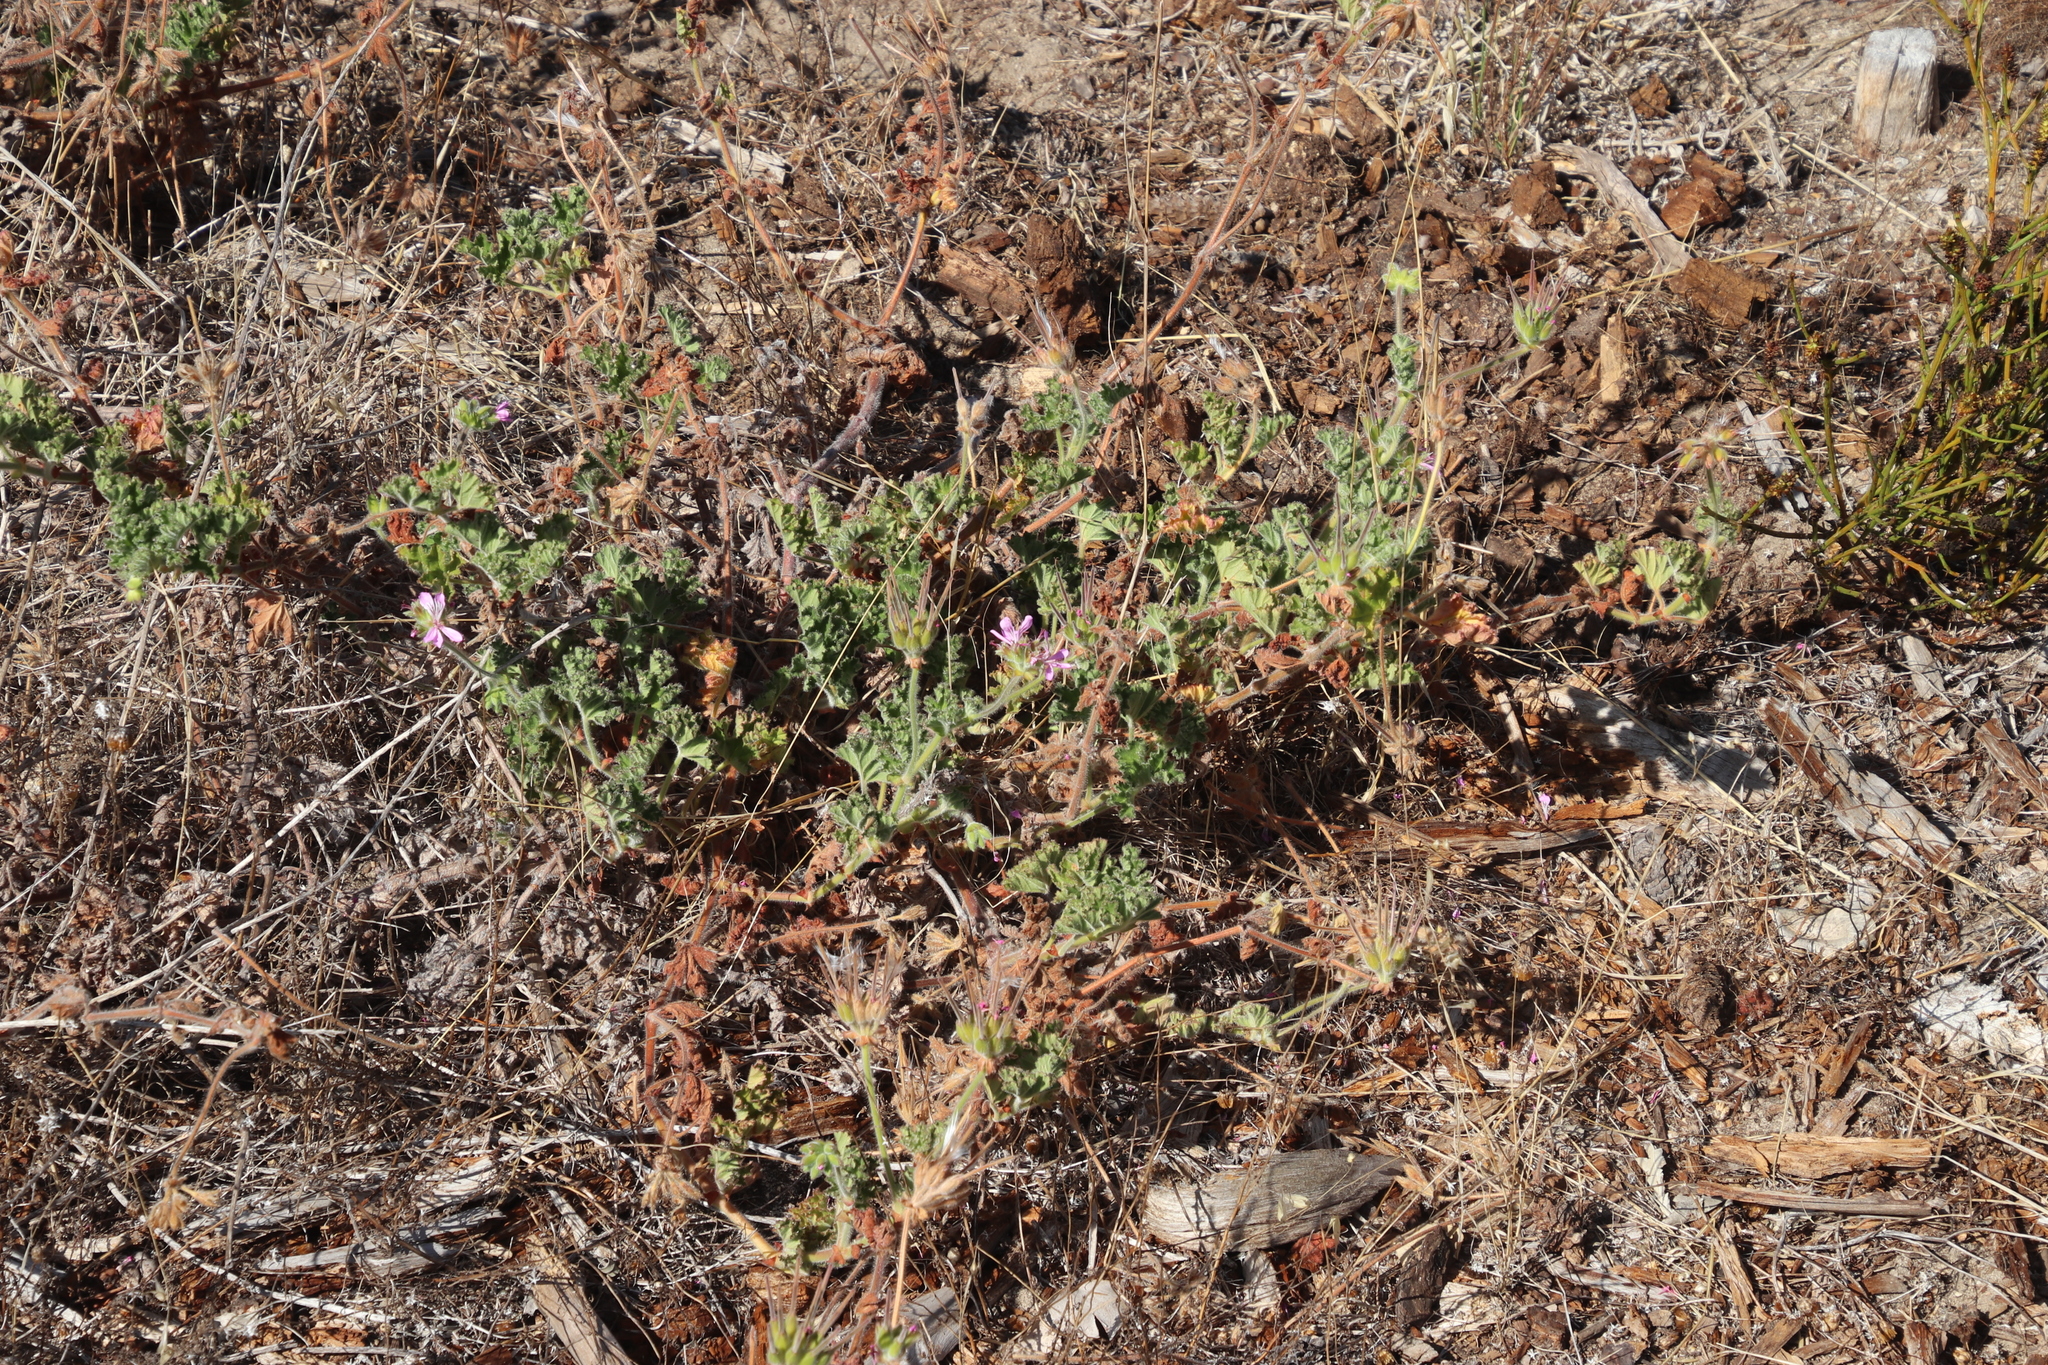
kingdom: Plantae
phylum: Tracheophyta
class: Magnoliopsida
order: Geraniales
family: Geraniaceae
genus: Pelargonium
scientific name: Pelargonium capitatum
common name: Rose scented geranium
